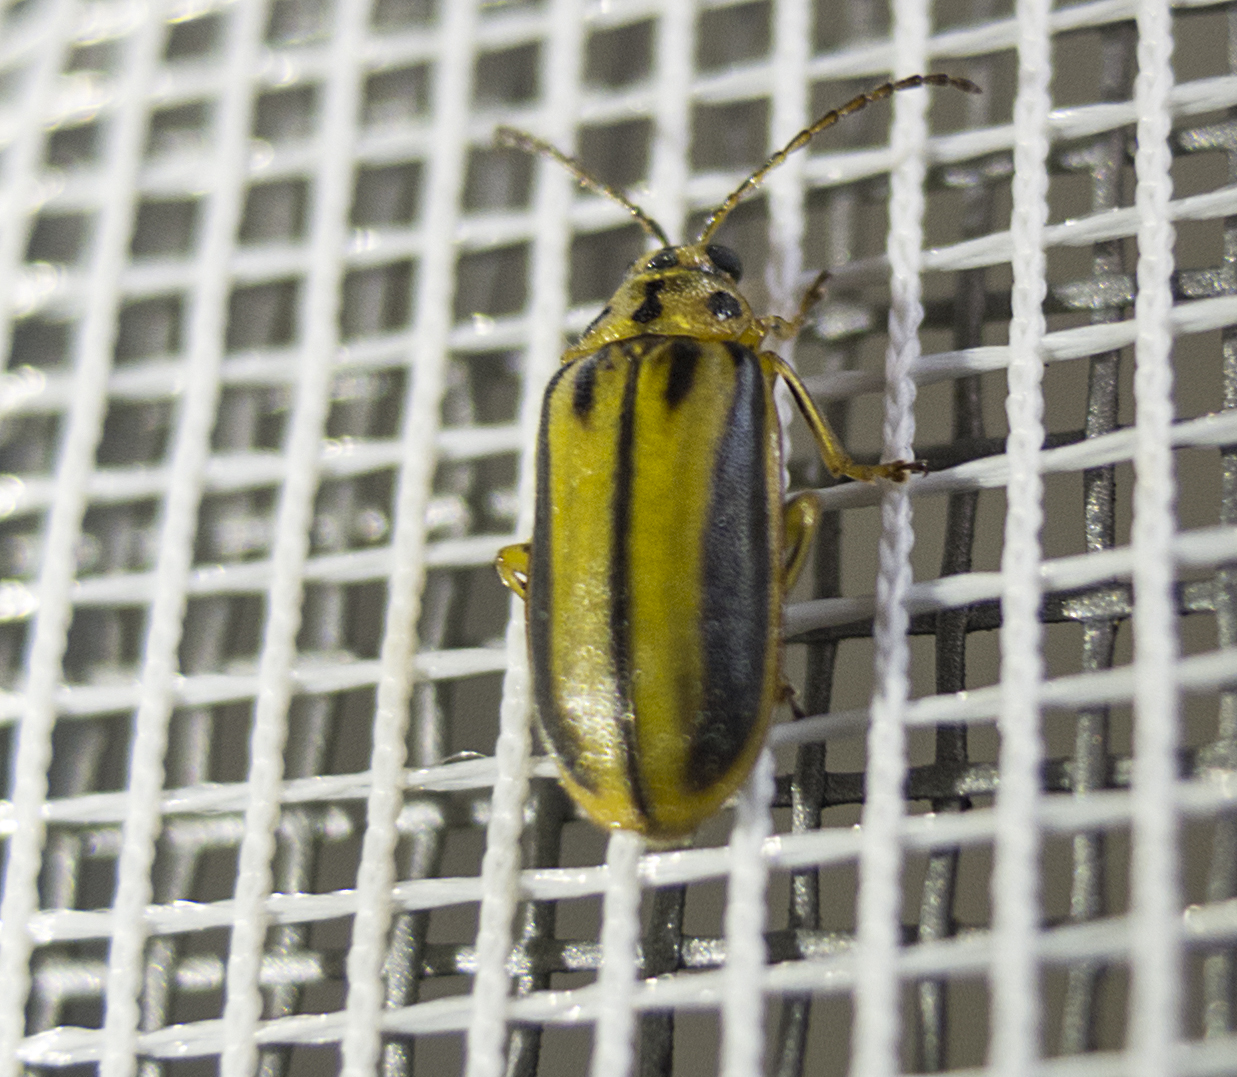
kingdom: Animalia
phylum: Arthropoda
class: Insecta
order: Coleoptera
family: Chrysomelidae
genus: Xanthogaleruca
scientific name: Xanthogaleruca luteola
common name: Elm leaf beetle
